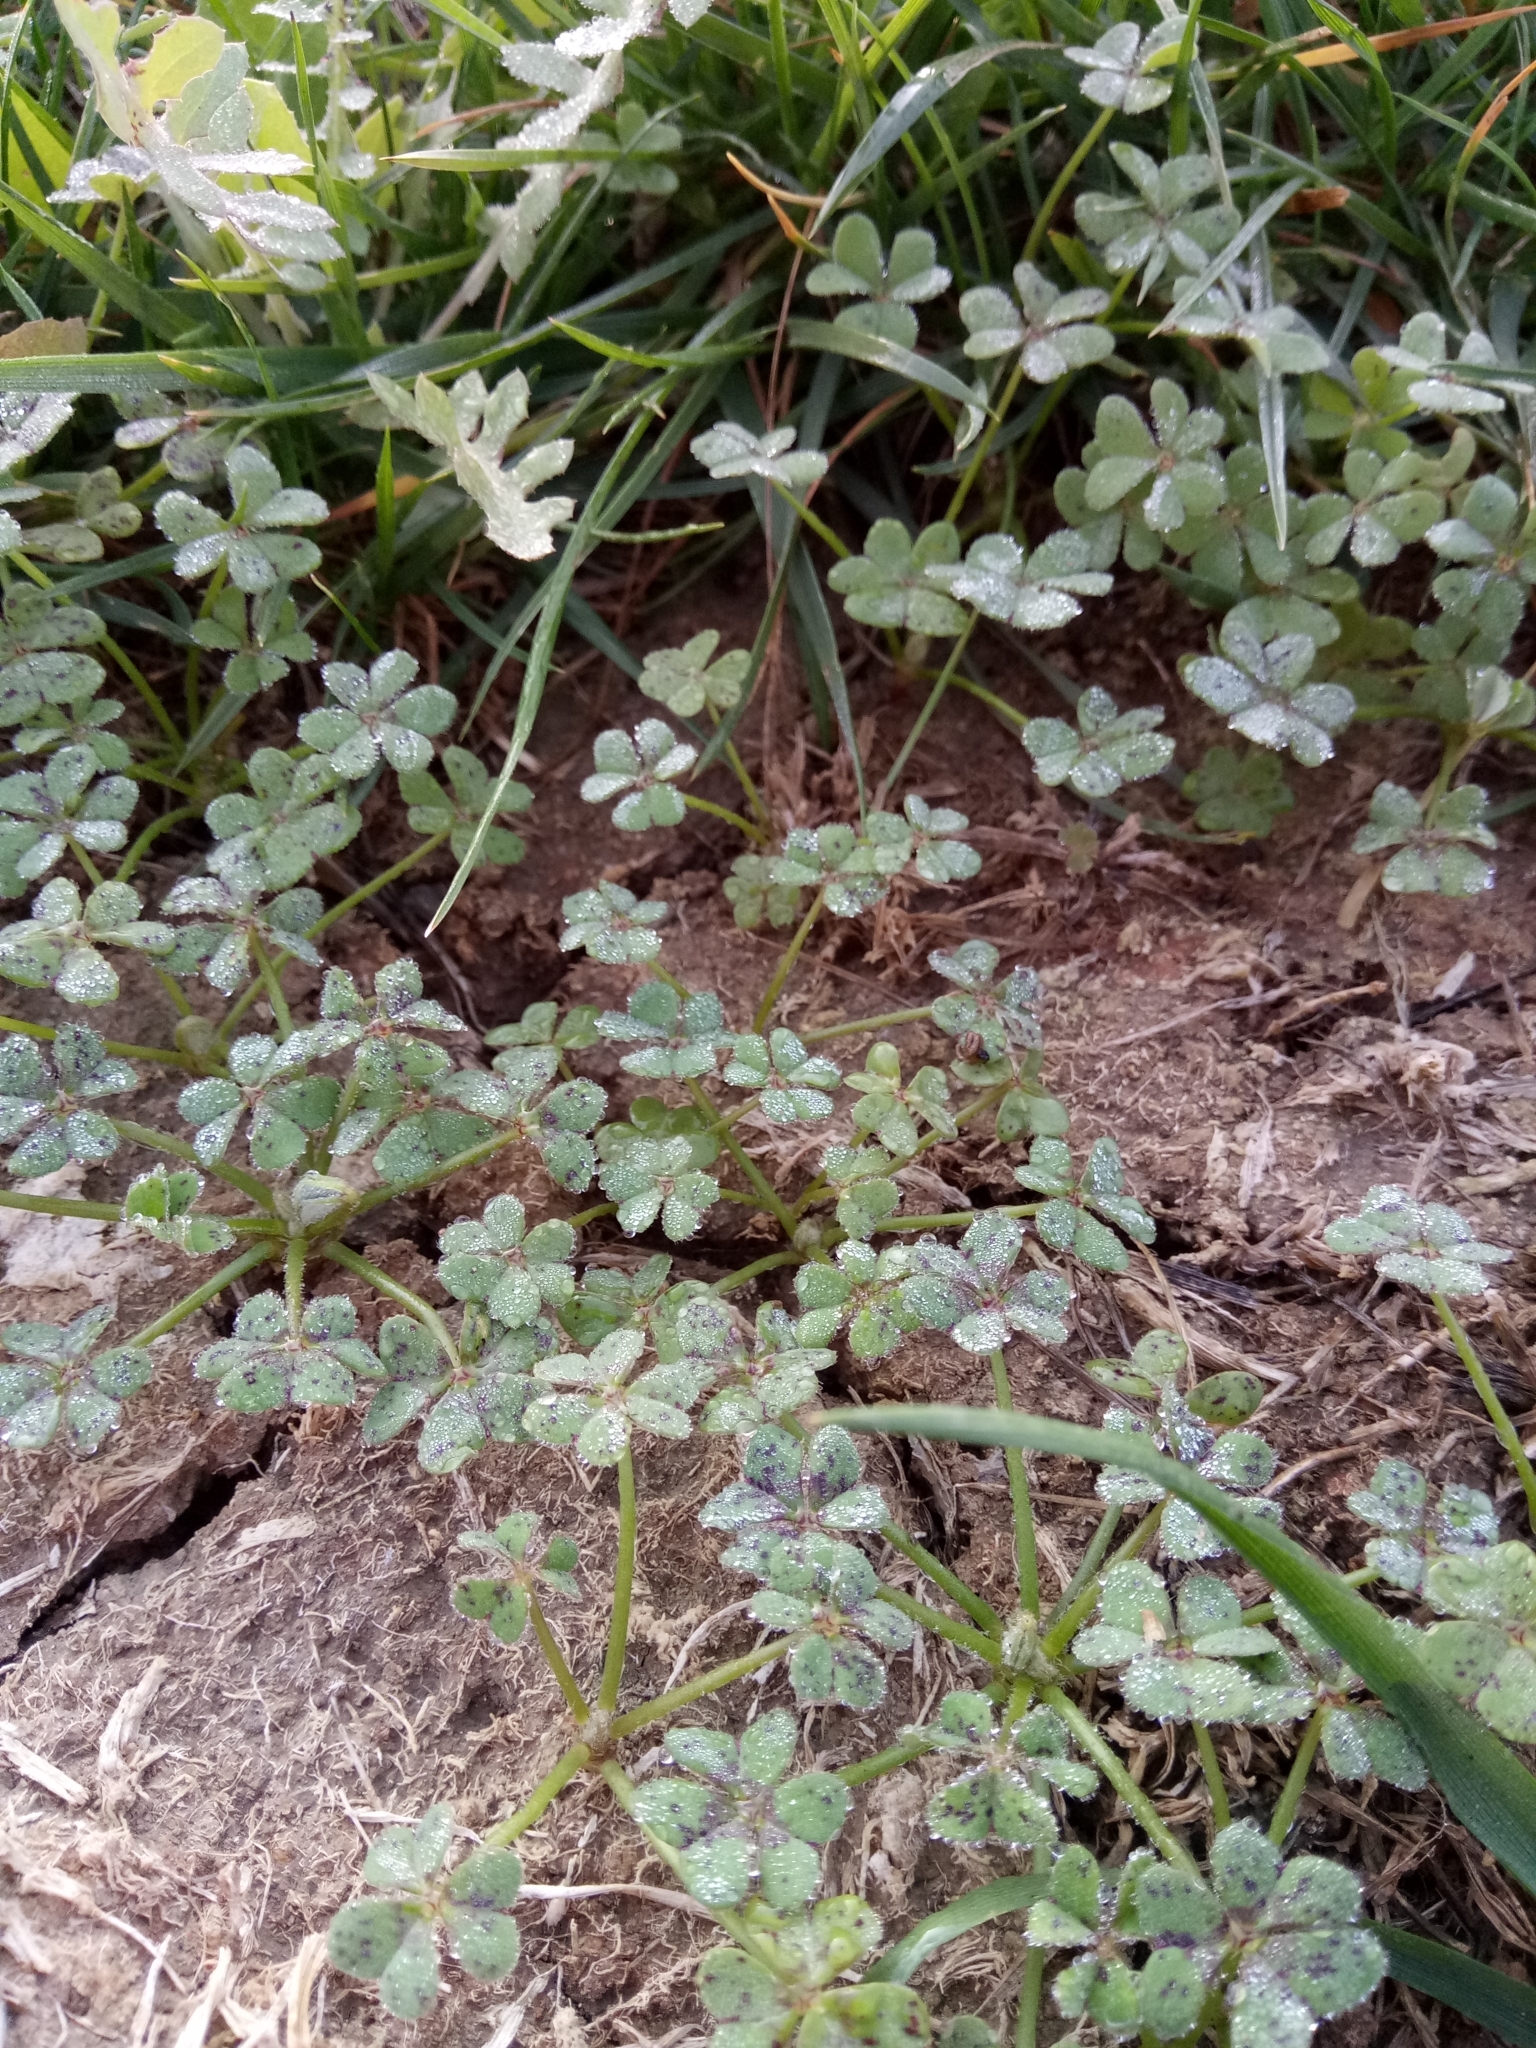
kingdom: Plantae
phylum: Tracheophyta
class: Magnoliopsida
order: Oxalidales
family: Oxalidaceae
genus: Oxalis
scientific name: Oxalis pes-caprae
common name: Bermuda-buttercup
